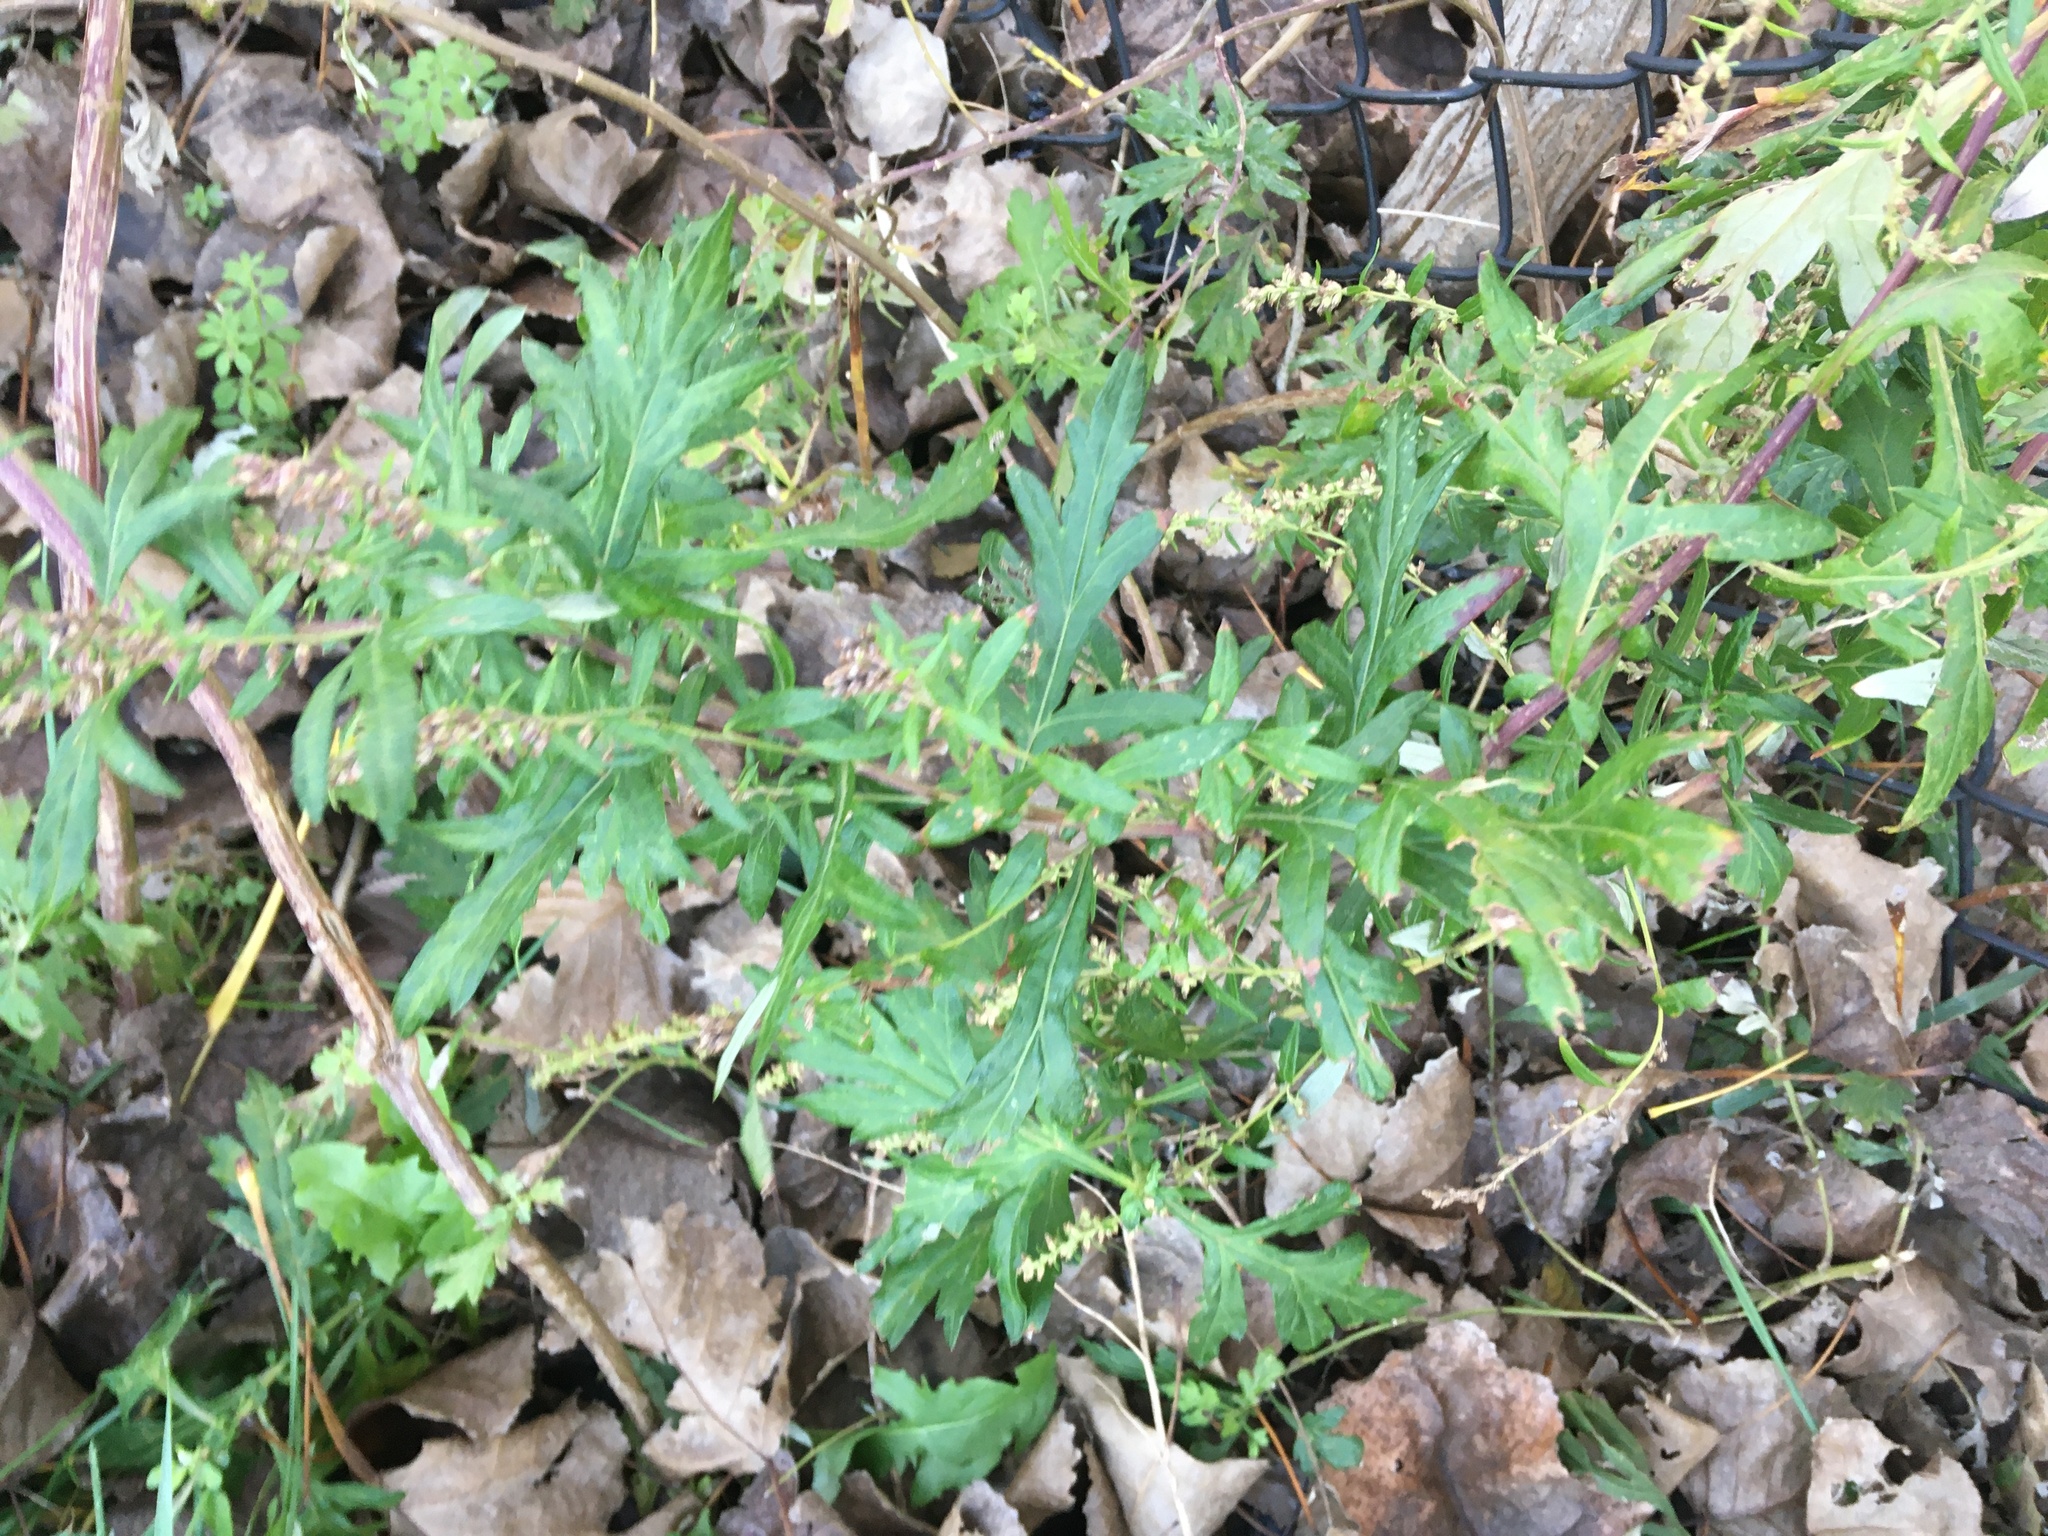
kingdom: Plantae
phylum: Tracheophyta
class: Magnoliopsida
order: Asterales
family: Asteraceae
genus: Artemisia
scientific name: Artemisia vulgaris
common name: Mugwort
